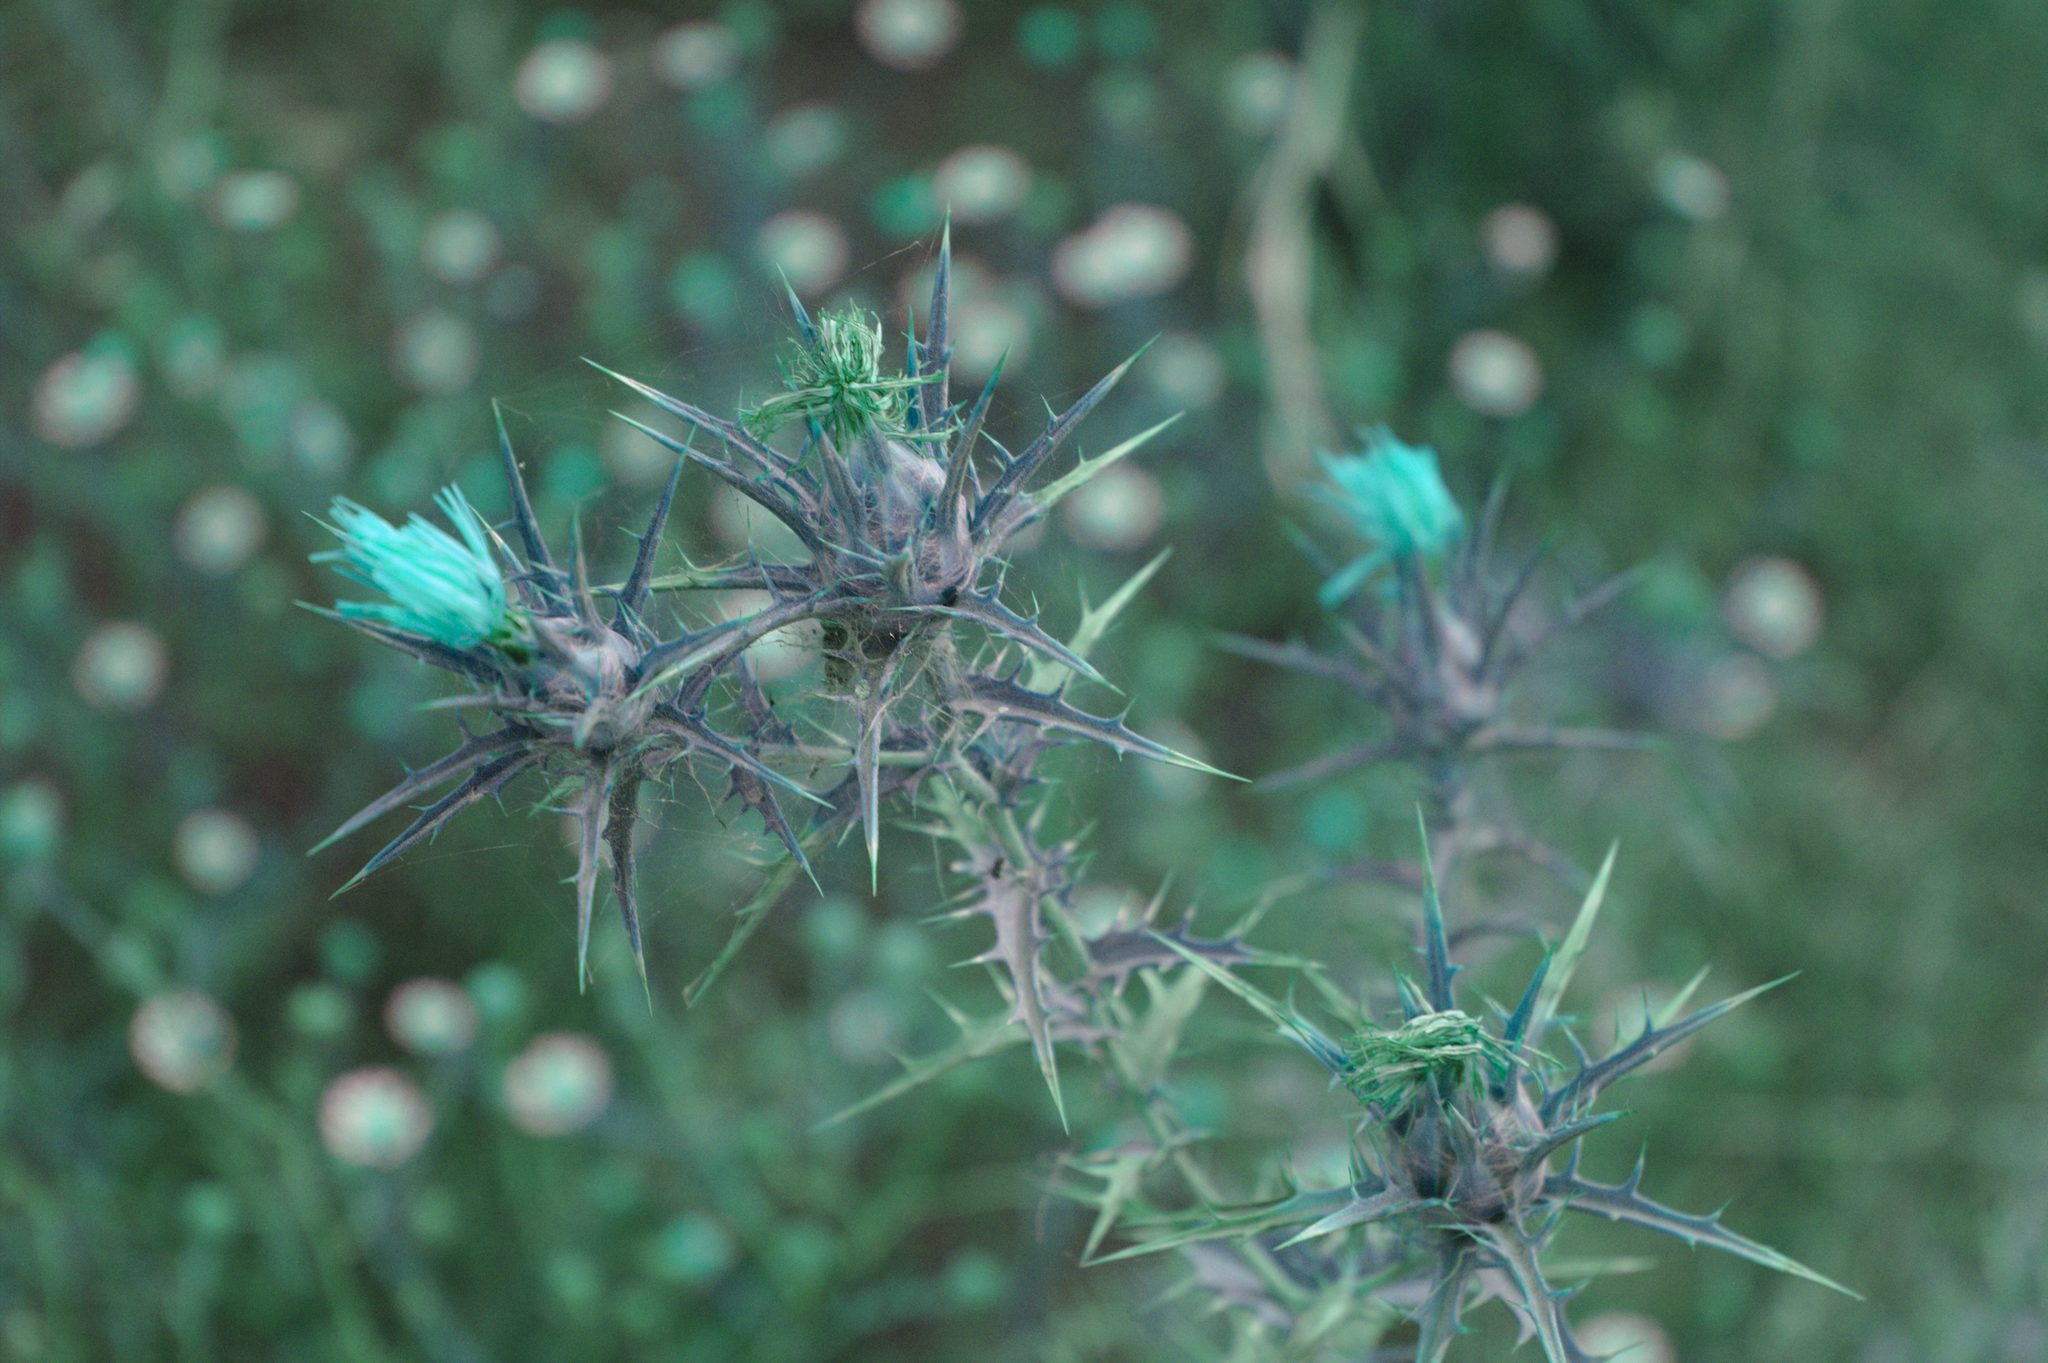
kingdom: Plantae
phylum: Tracheophyta
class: Magnoliopsida
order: Asterales
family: Asteraceae
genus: Carthamus
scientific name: Carthamus lanatus
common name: Downy safflower
